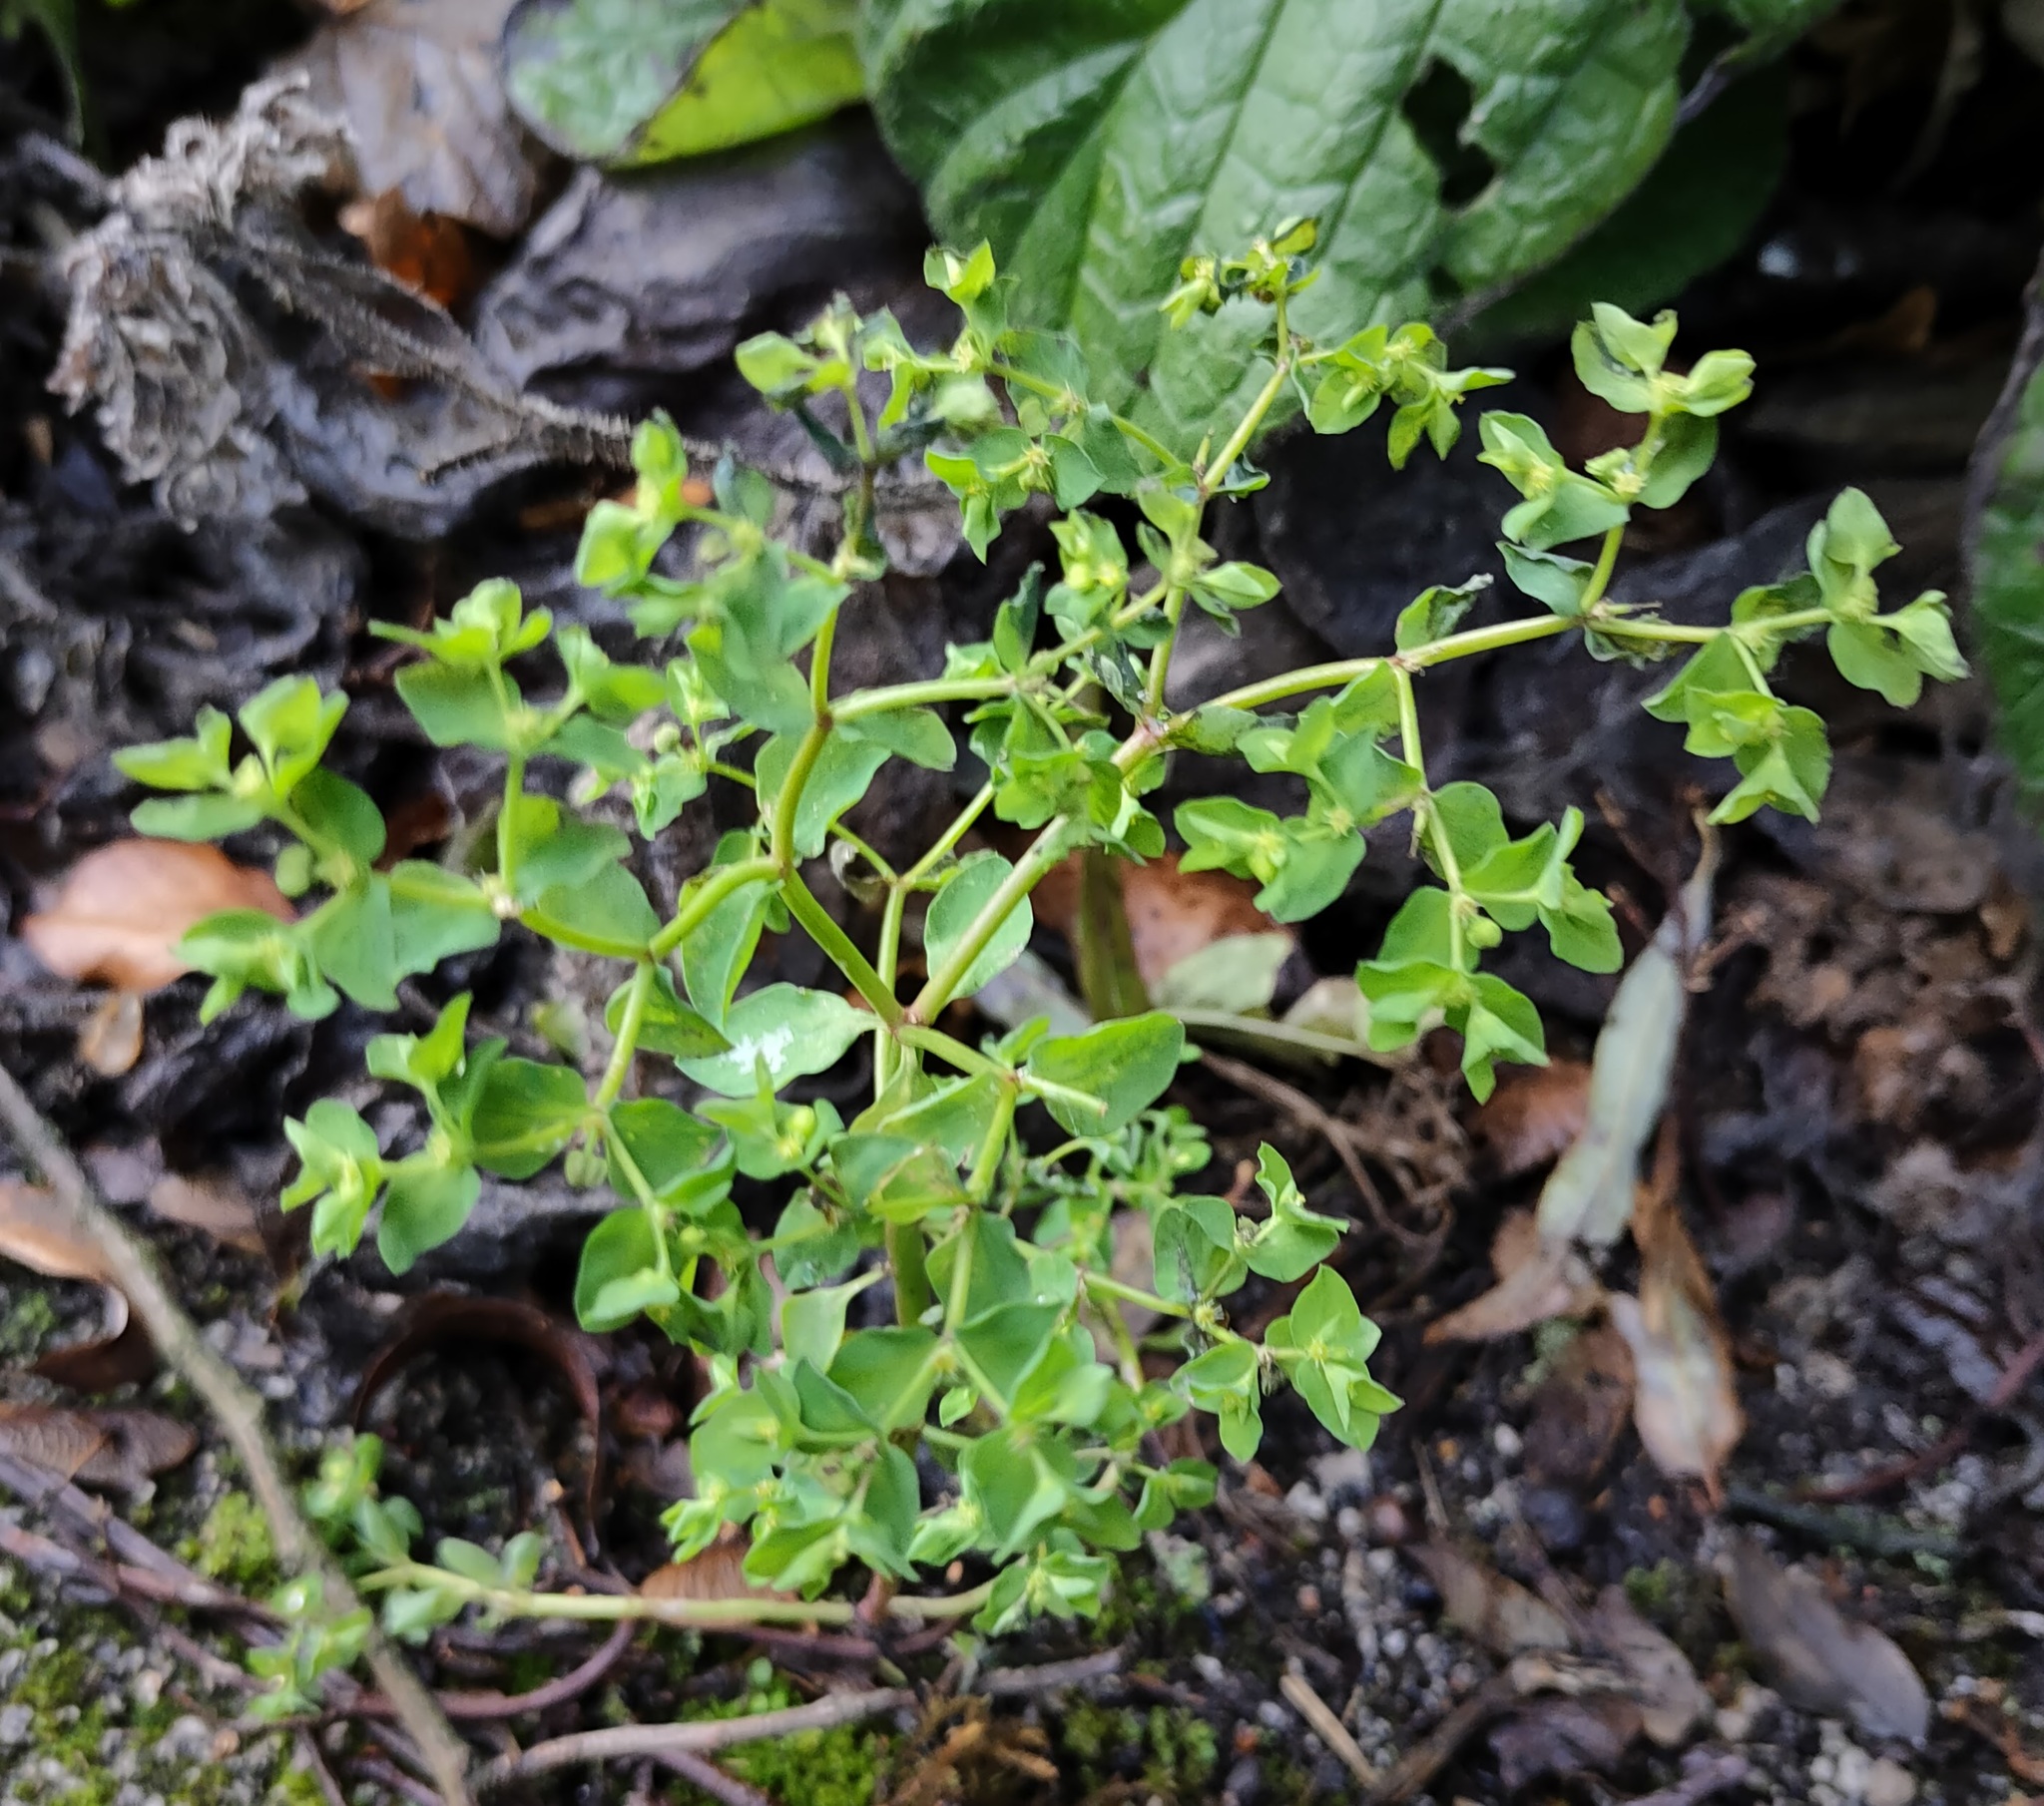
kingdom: Plantae
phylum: Tracheophyta
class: Magnoliopsida
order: Malpighiales
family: Euphorbiaceae
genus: Euphorbia
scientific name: Euphorbia peplus
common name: Petty spurge
